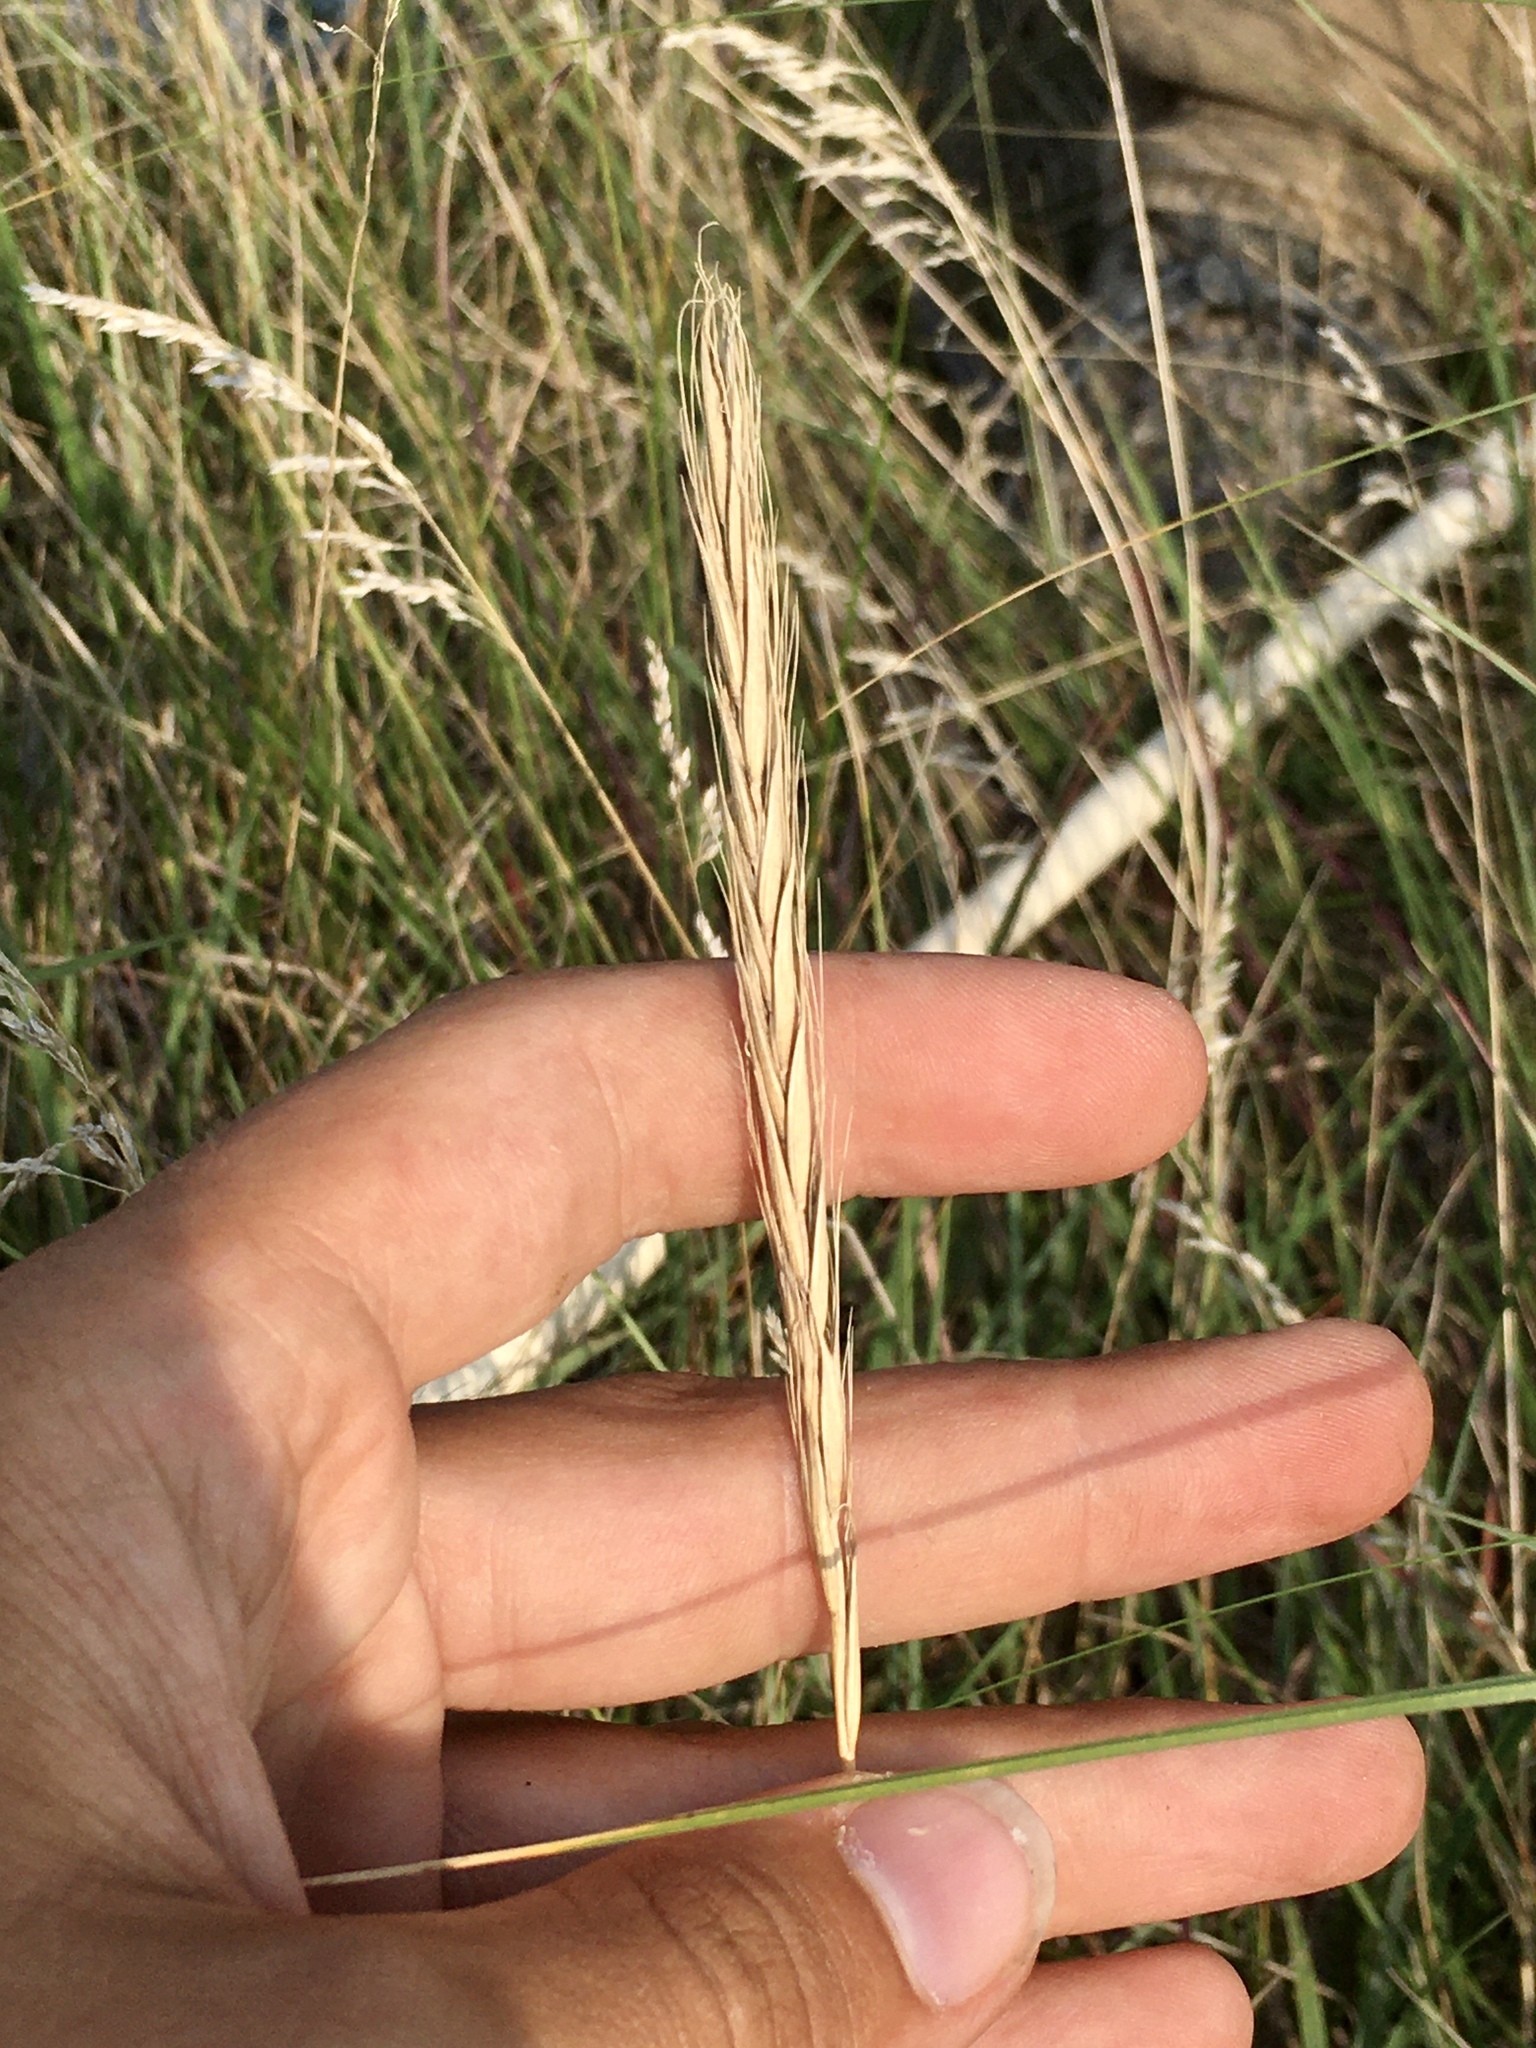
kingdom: Plantae
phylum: Tracheophyta
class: Liliopsida
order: Poales
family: Poaceae
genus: Elymus
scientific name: Elymus violaceus
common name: Arctic wheatgrass
